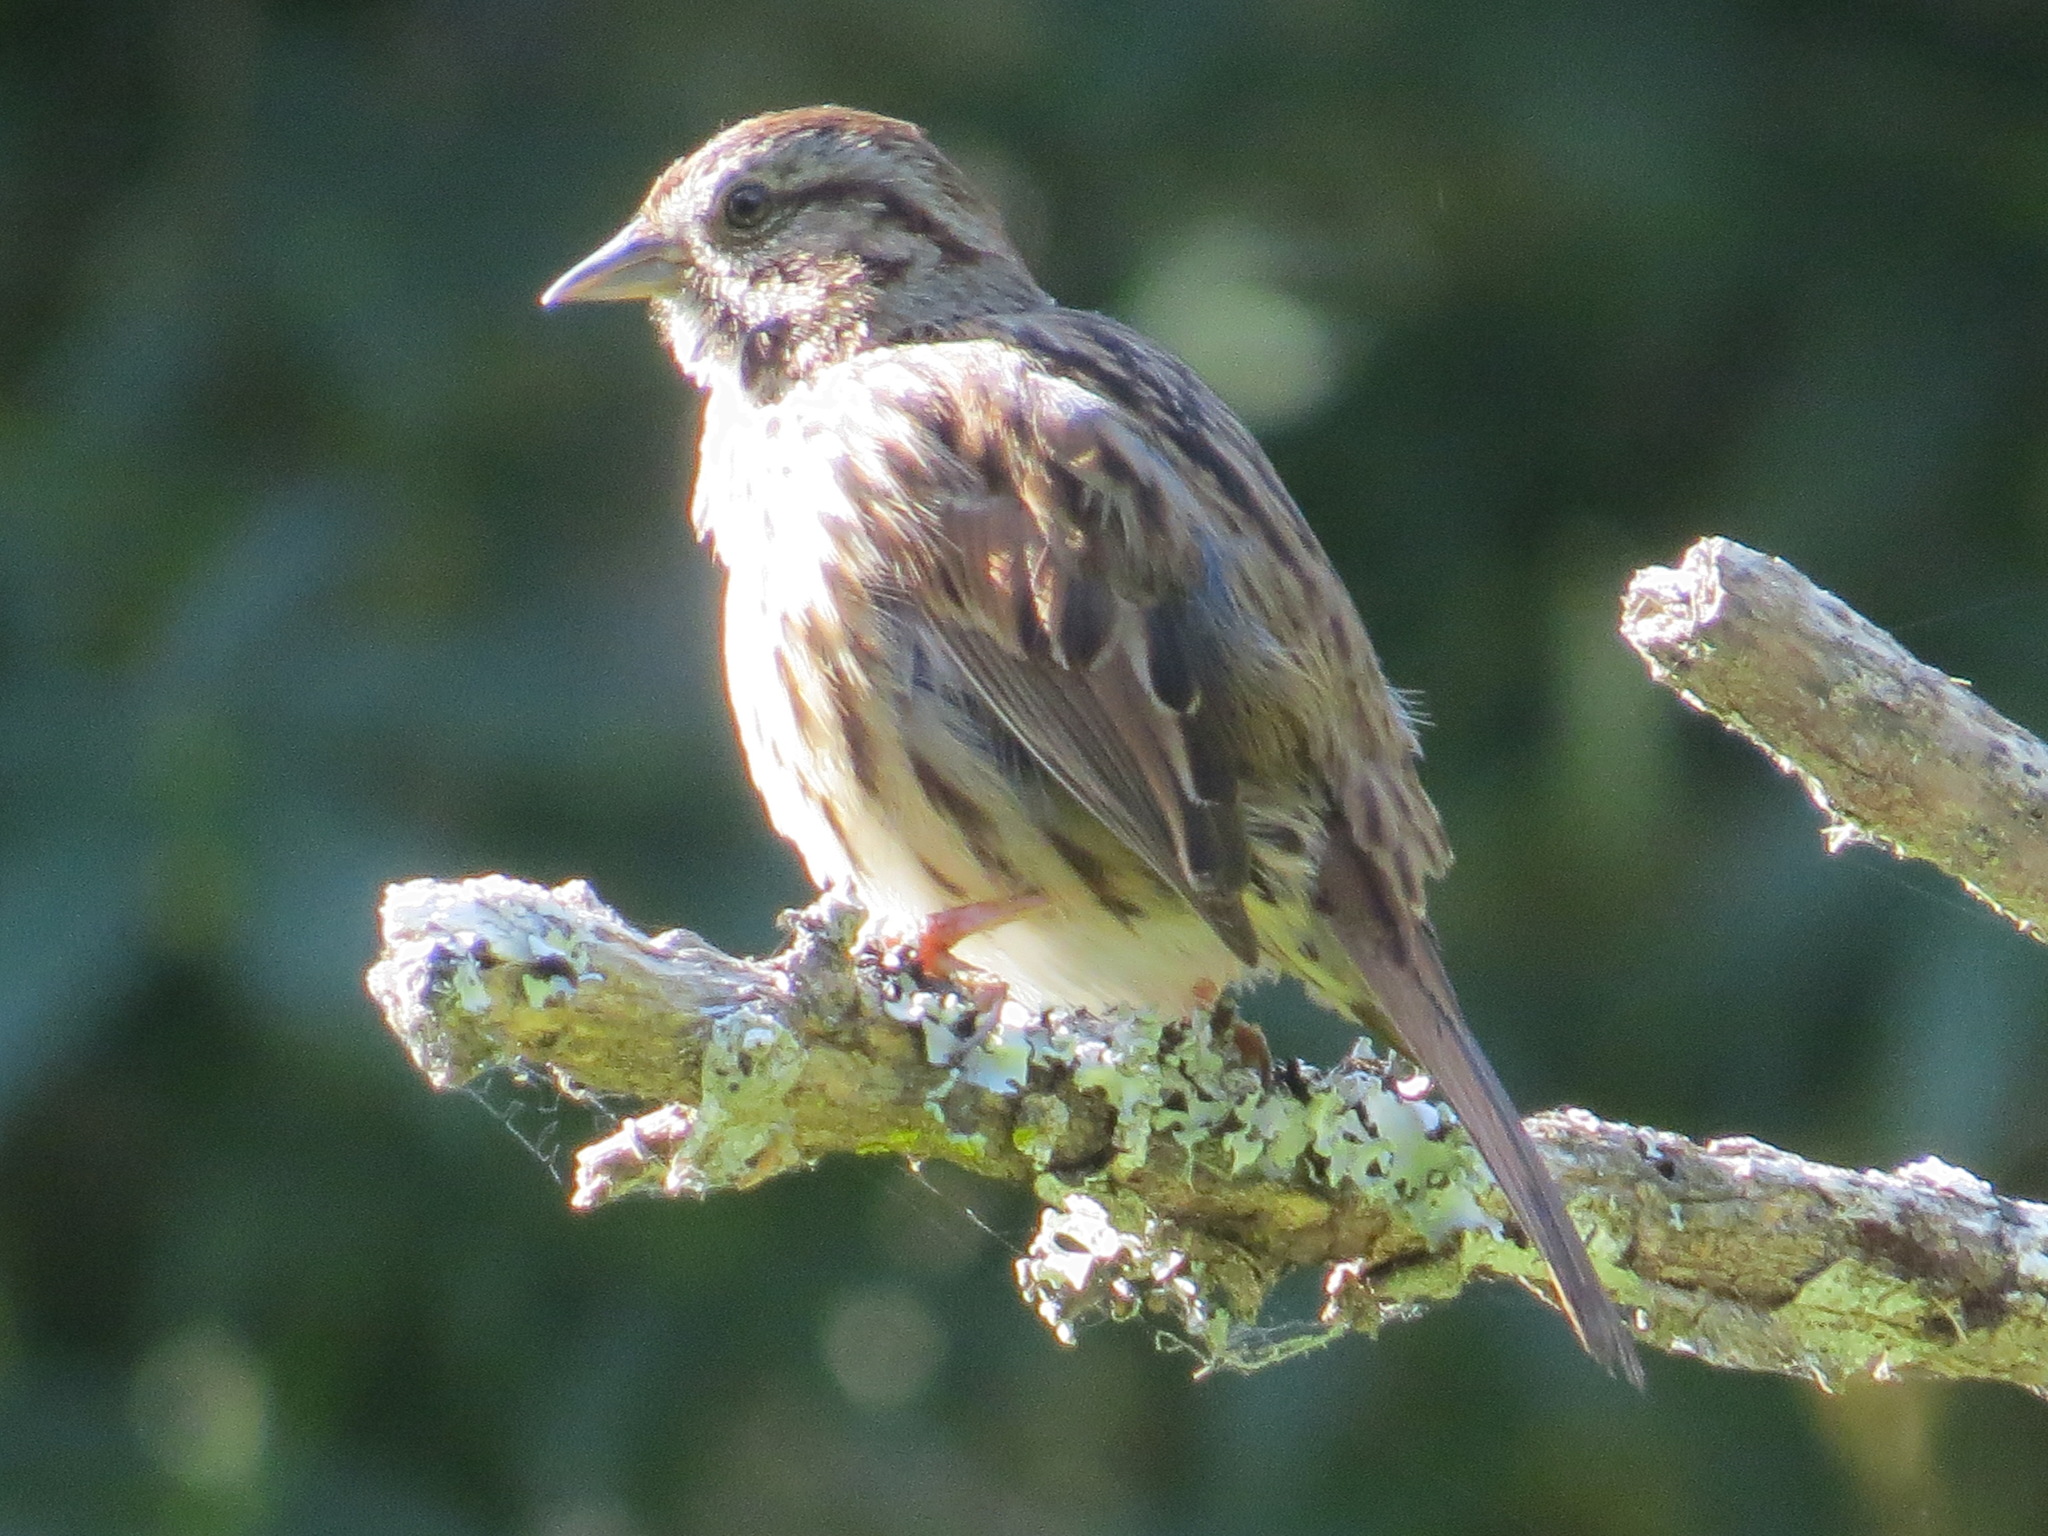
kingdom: Animalia
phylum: Chordata
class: Aves
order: Passeriformes
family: Passerellidae
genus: Melospiza
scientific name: Melospiza melodia
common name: Song sparrow
